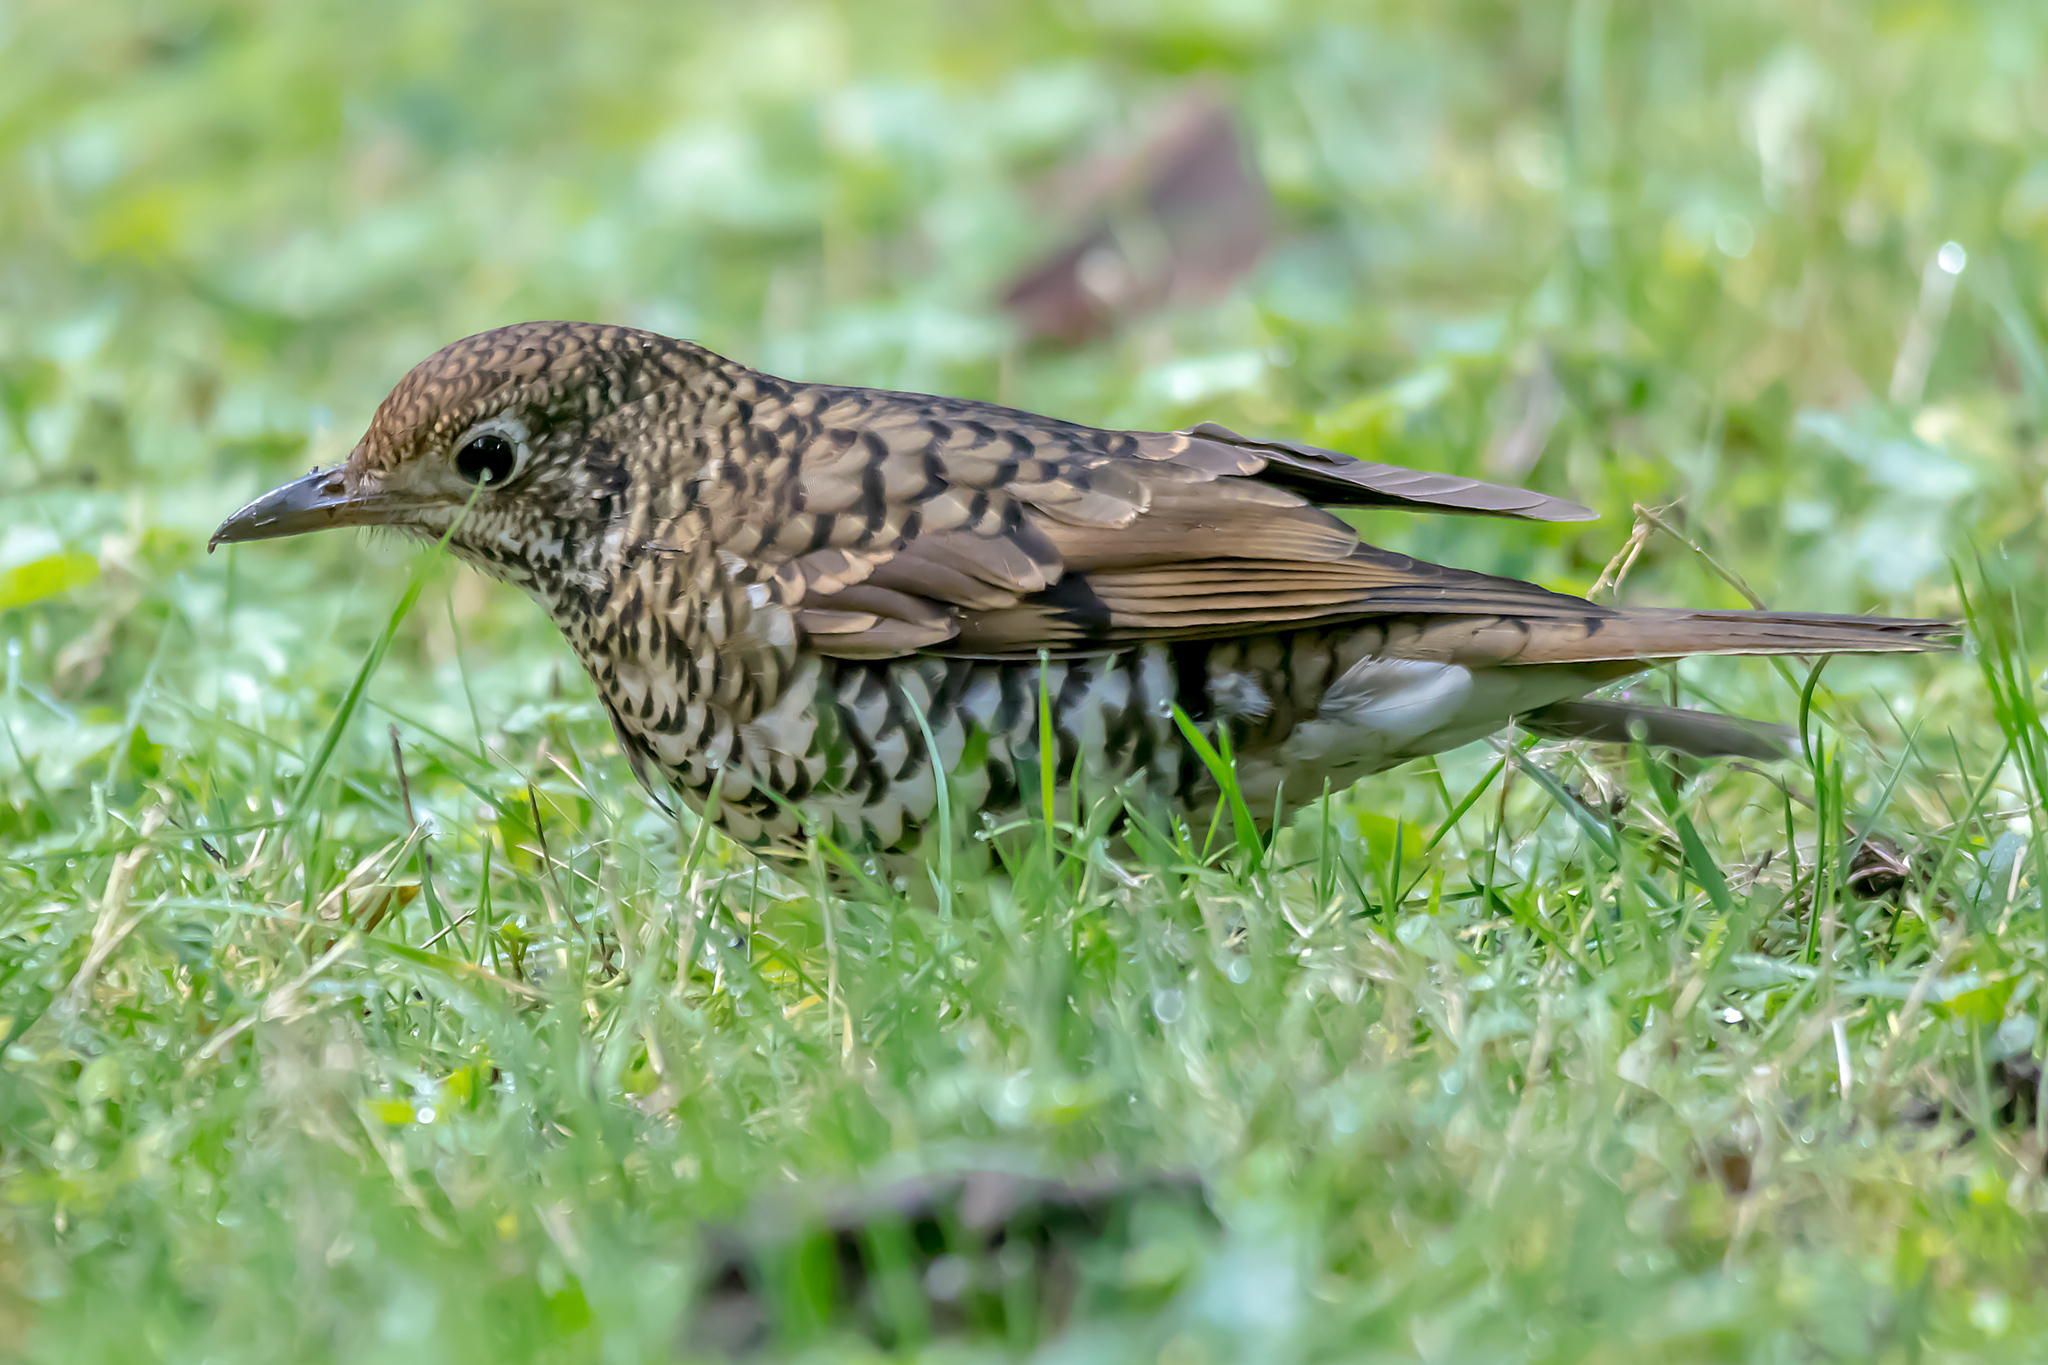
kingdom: Animalia
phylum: Chordata
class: Aves
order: Passeriformes
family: Turdidae
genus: Zoothera
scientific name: Zoothera lunulata
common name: Bassian thrush
